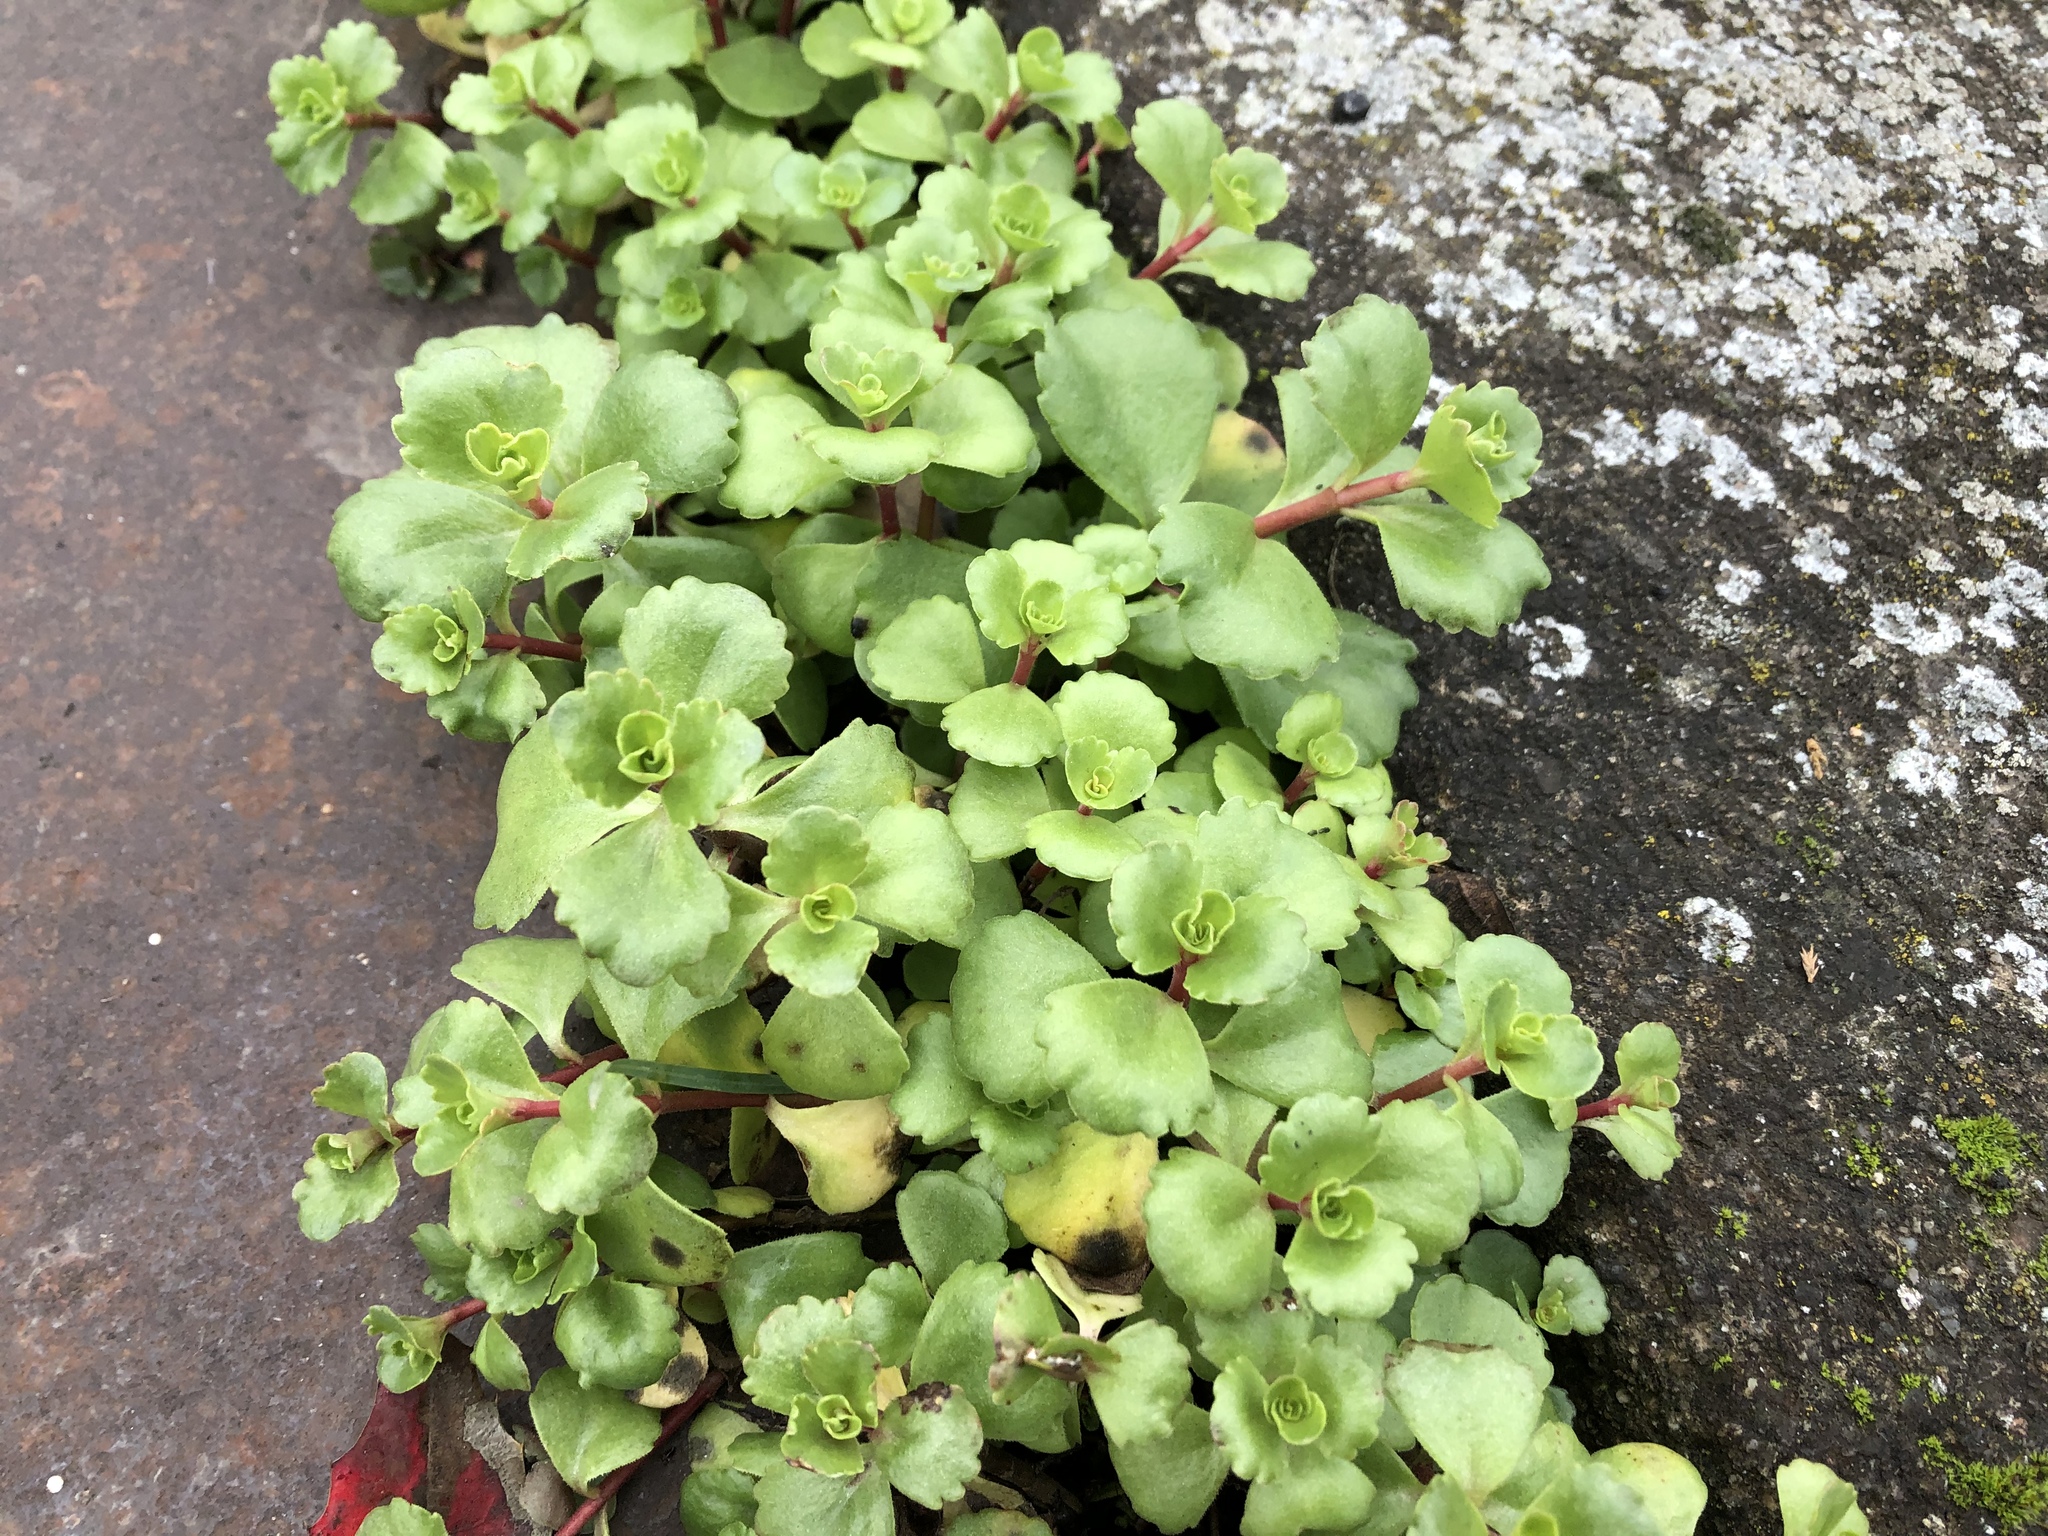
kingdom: Plantae
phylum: Tracheophyta
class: Magnoliopsida
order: Saxifragales
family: Crassulaceae
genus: Phedimus
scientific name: Phedimus spurius
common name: Caucasian stonecrop
